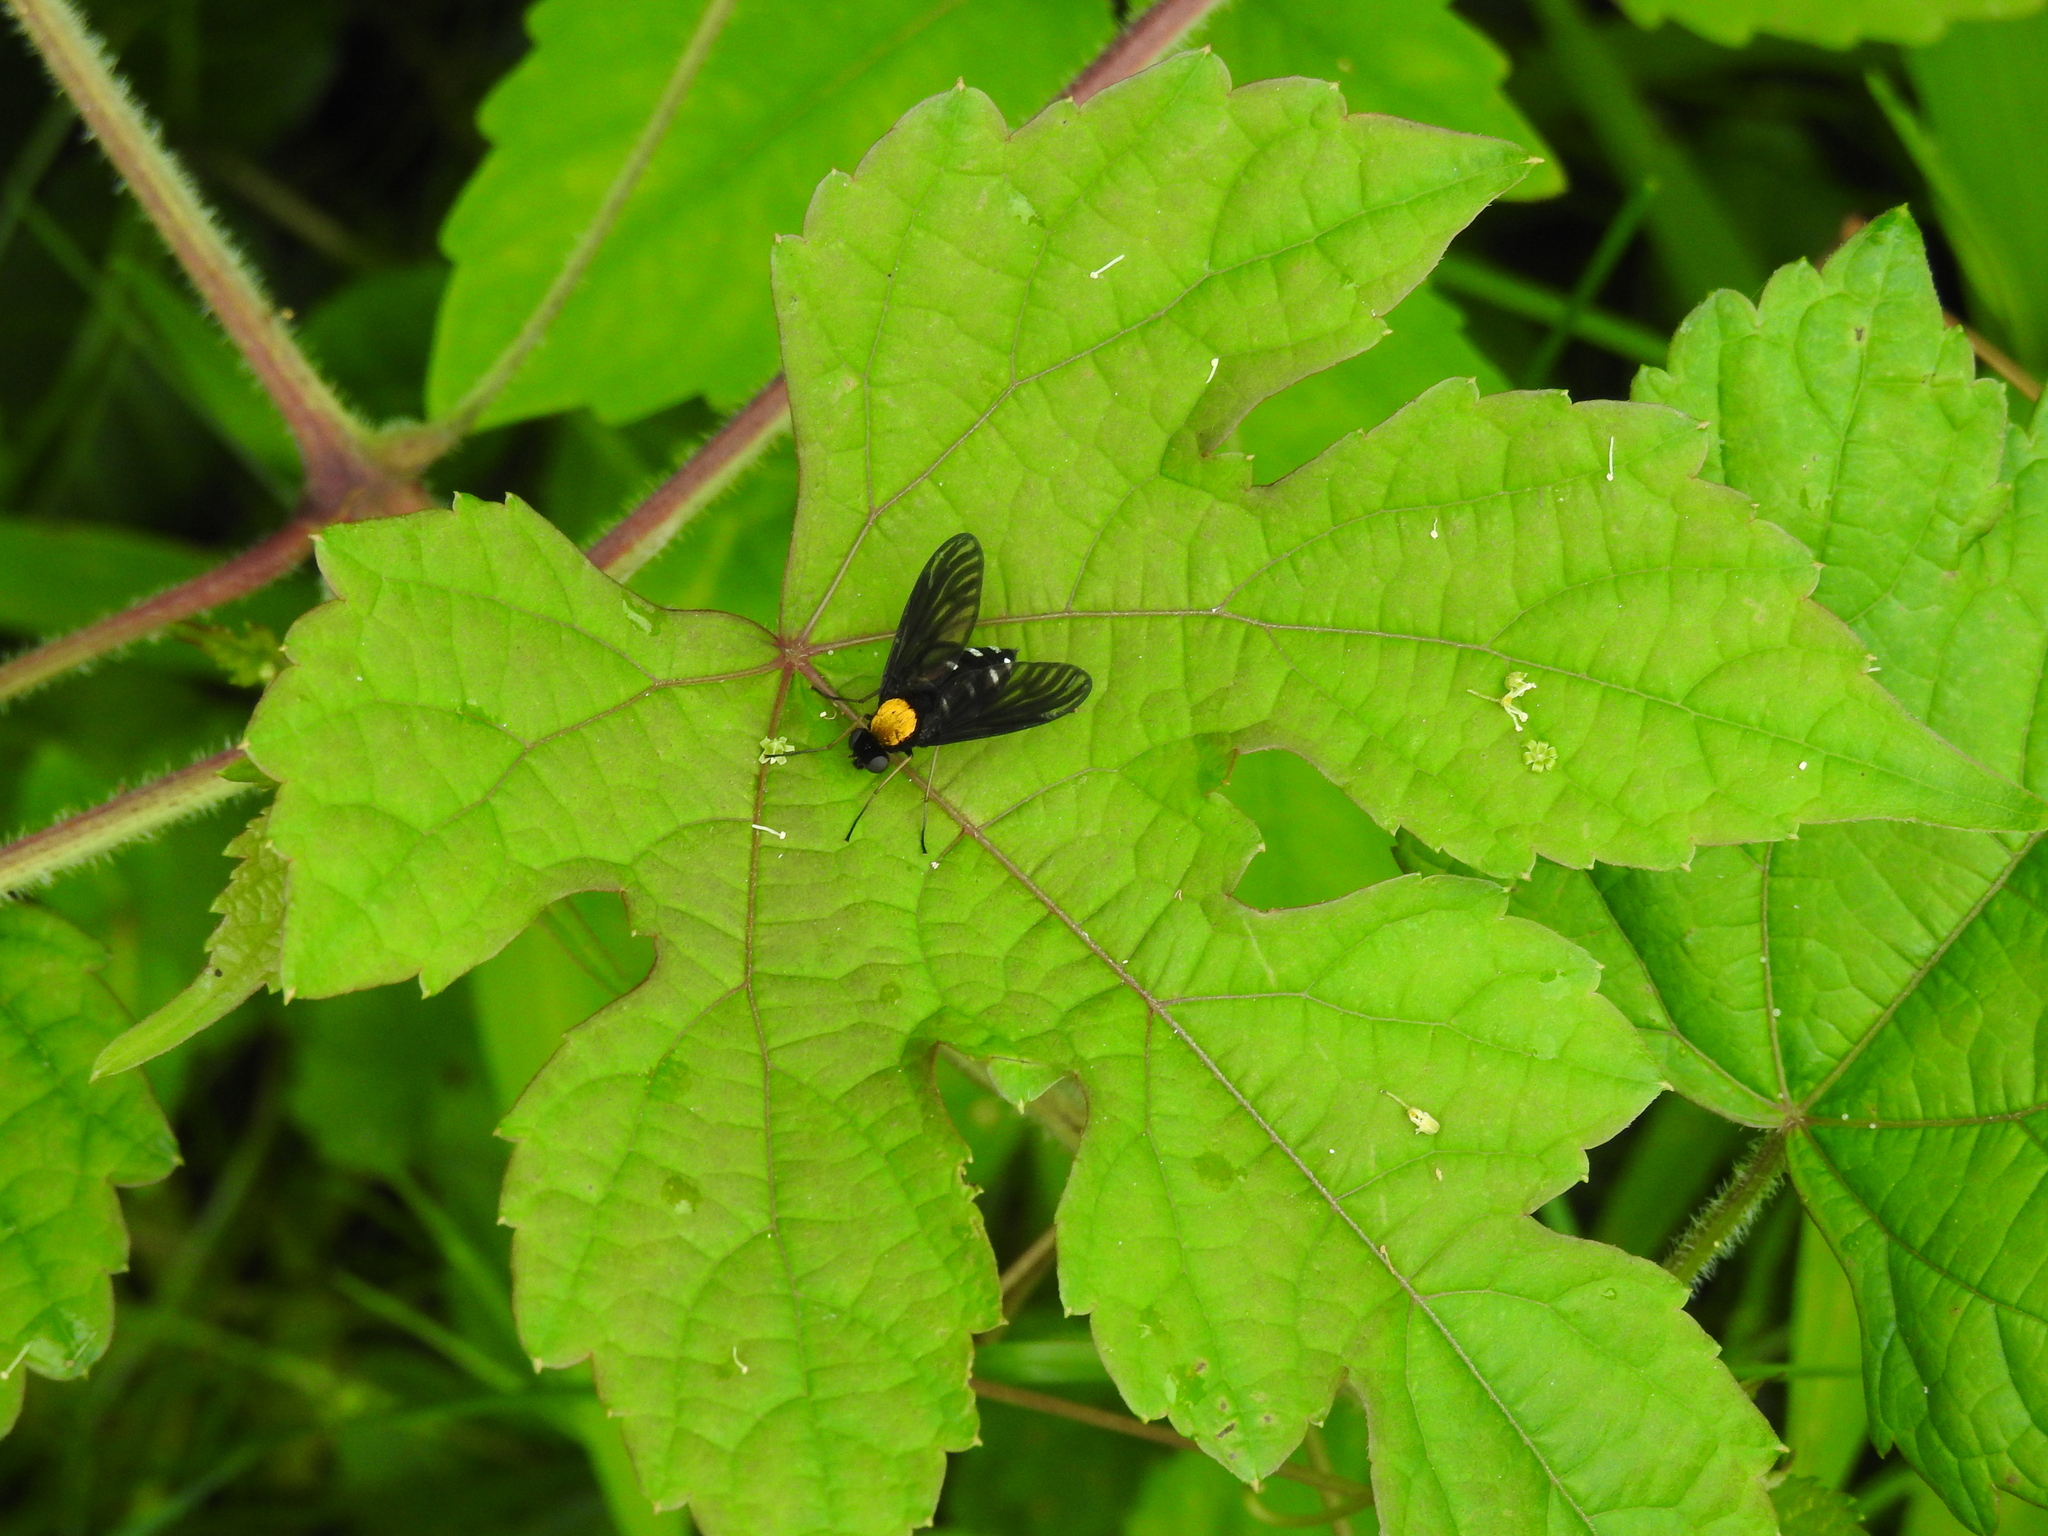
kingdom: Animalia
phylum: Arthropoda
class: Insecta
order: Diptera
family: Rhagionidae
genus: Chrysopilus
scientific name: Chrysopilus thoracicus
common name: Golden-backed snipe fly
